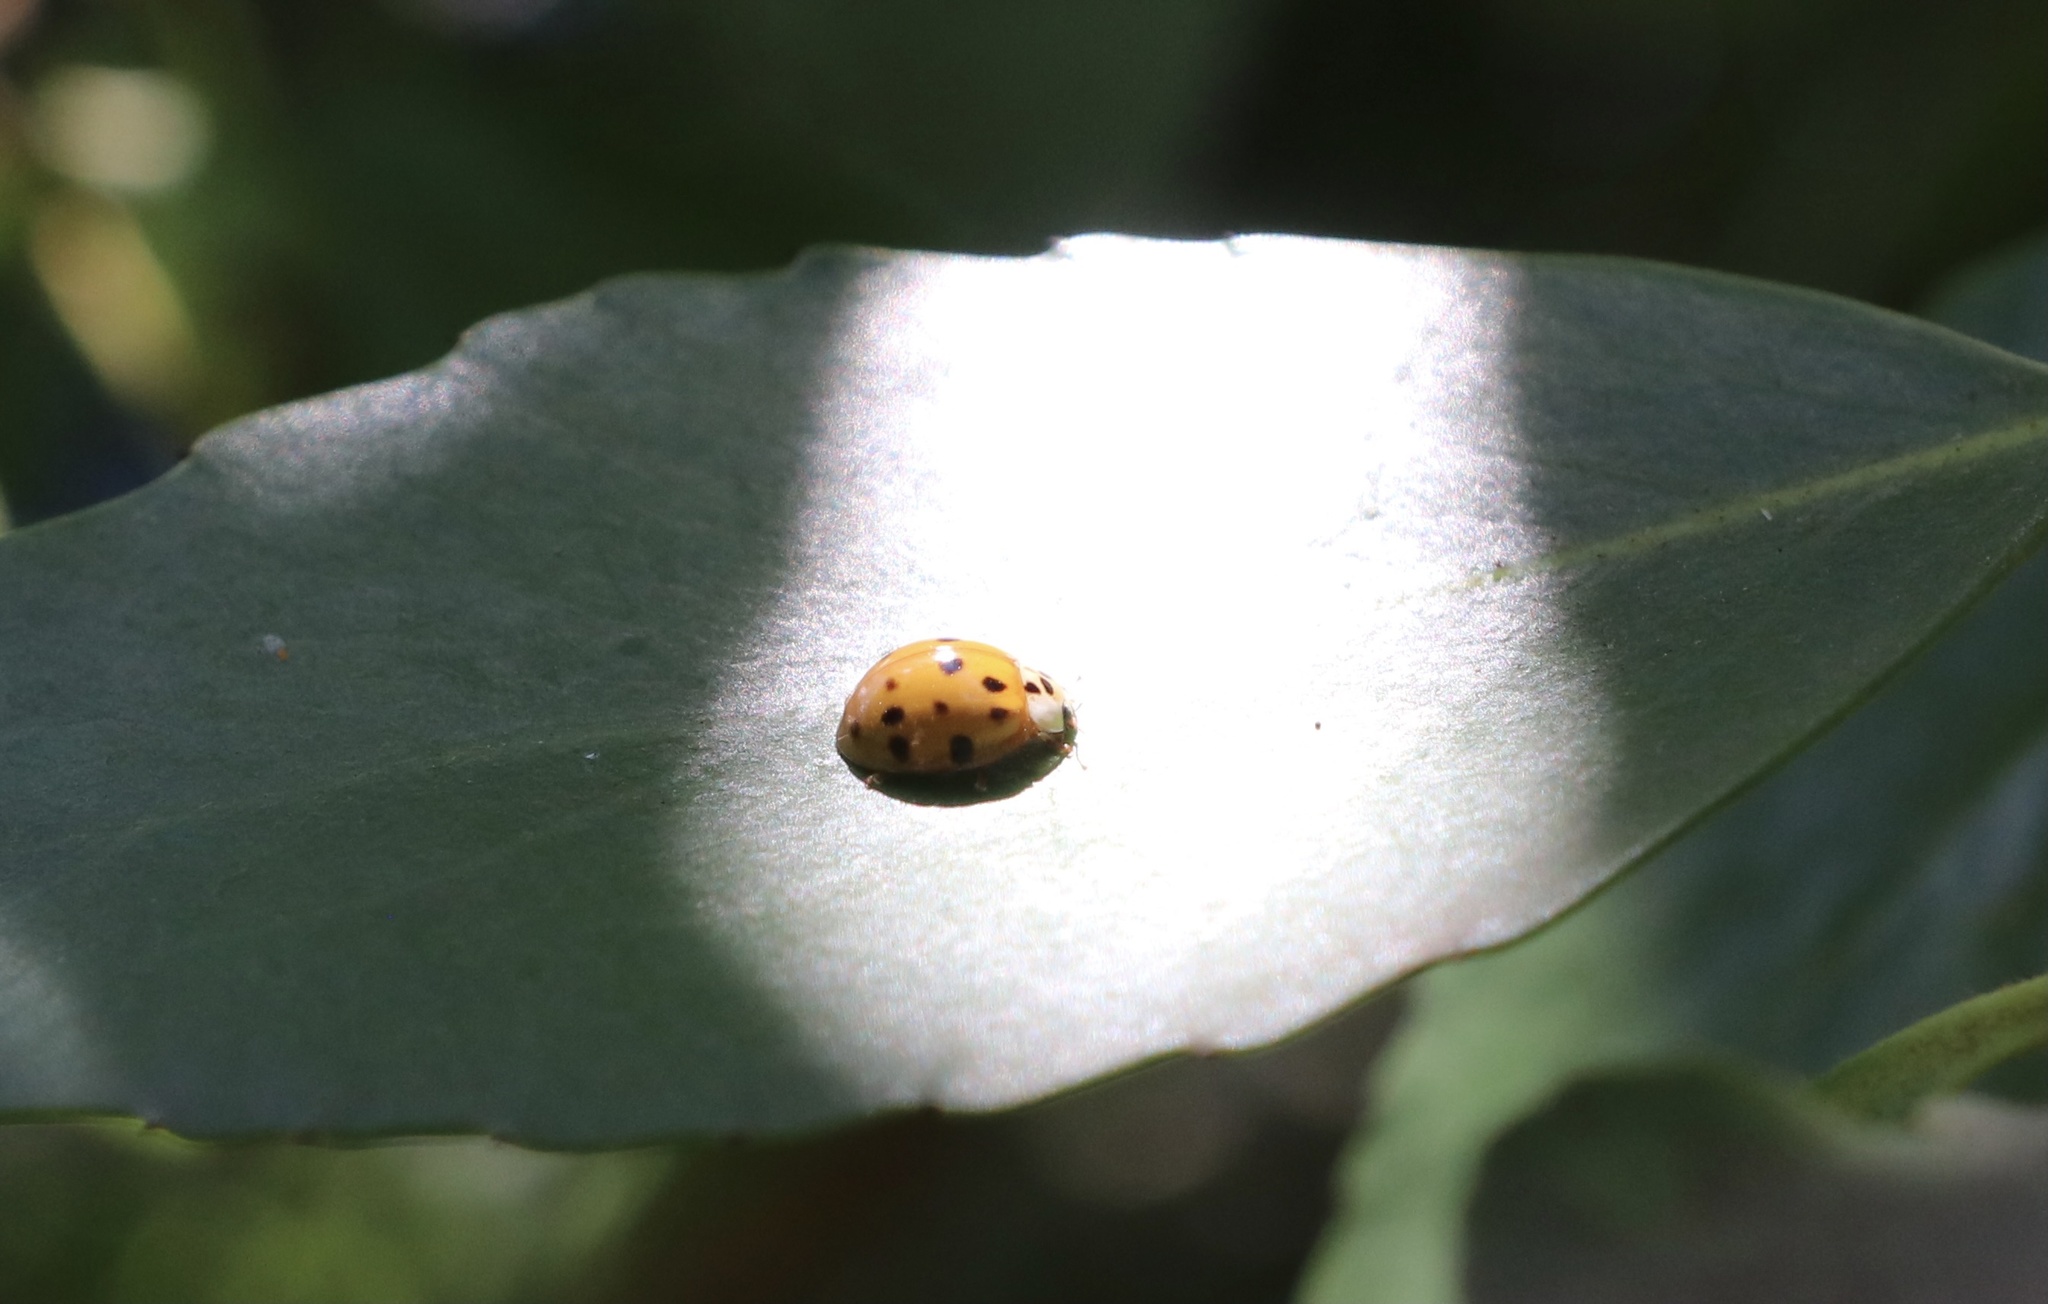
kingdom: Animalia
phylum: Arthropoda
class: Insecta
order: Coleoptera
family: Coccinellidae
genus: Harmonia
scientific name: Harmonia axyridis
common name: Harlequin ladybird
